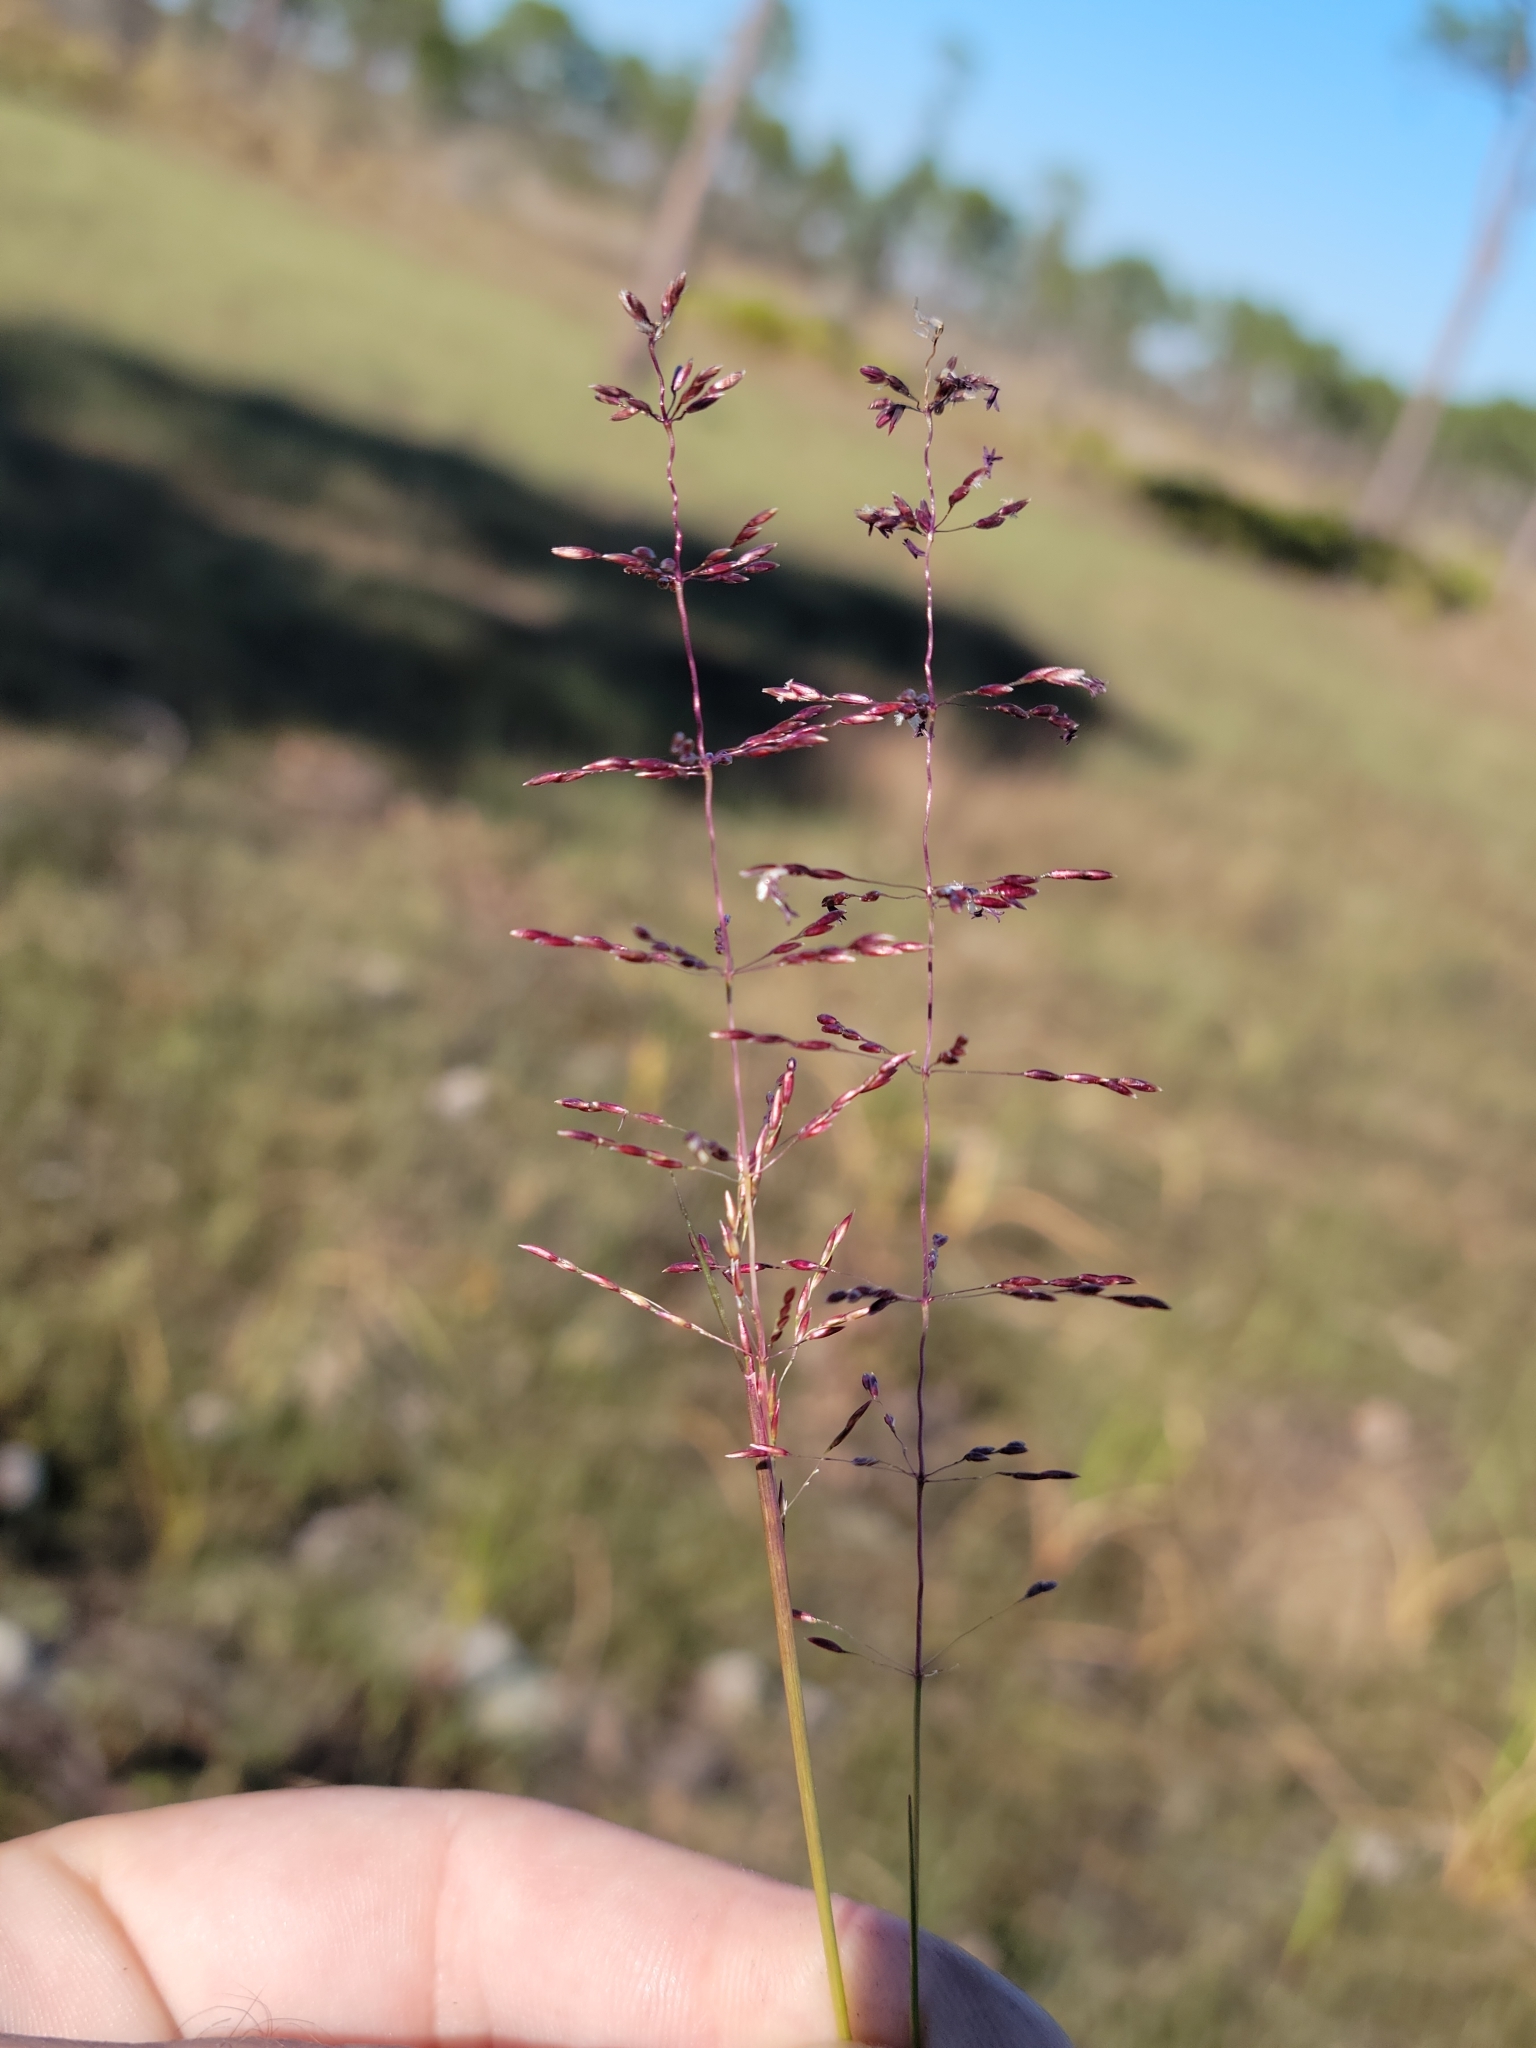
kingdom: Plantae
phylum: Tracheophyta
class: Liliopsida
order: Poales
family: Poaceae
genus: Sporobolus
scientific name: Sporobolus junceus
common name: Lizard grass
